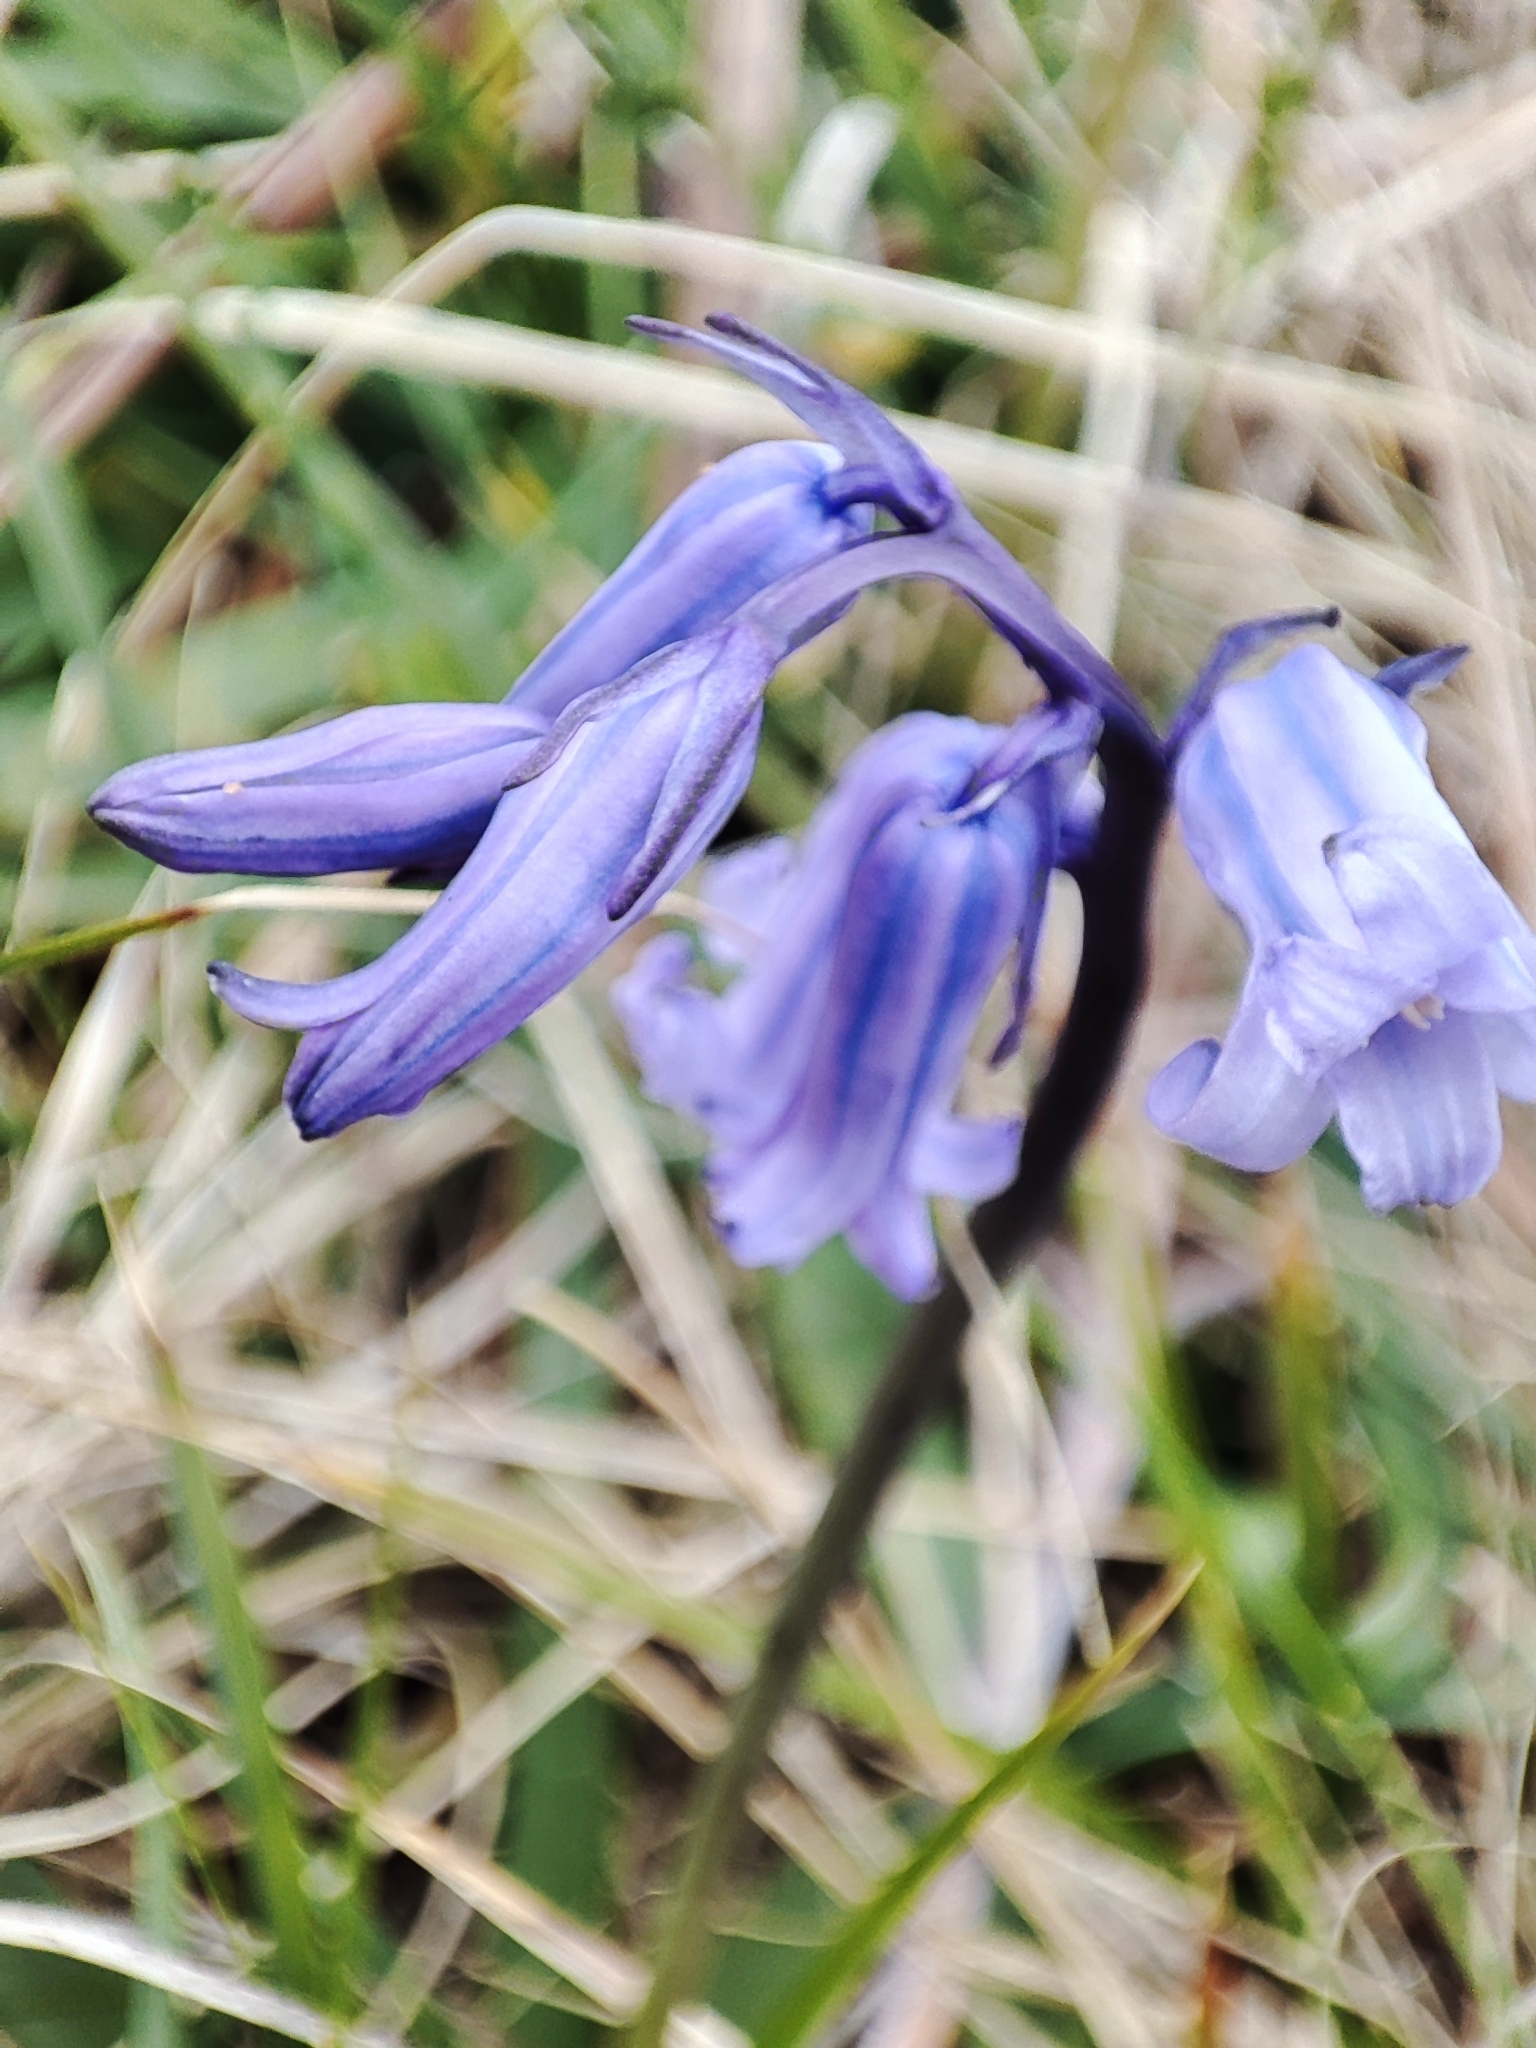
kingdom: Plantae
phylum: Tracheophyta
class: Liliopsida
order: Asparagales
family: Asparagaceae
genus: Hyacinthoides
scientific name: Hyacinthoides non-scripta
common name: Bluebell
